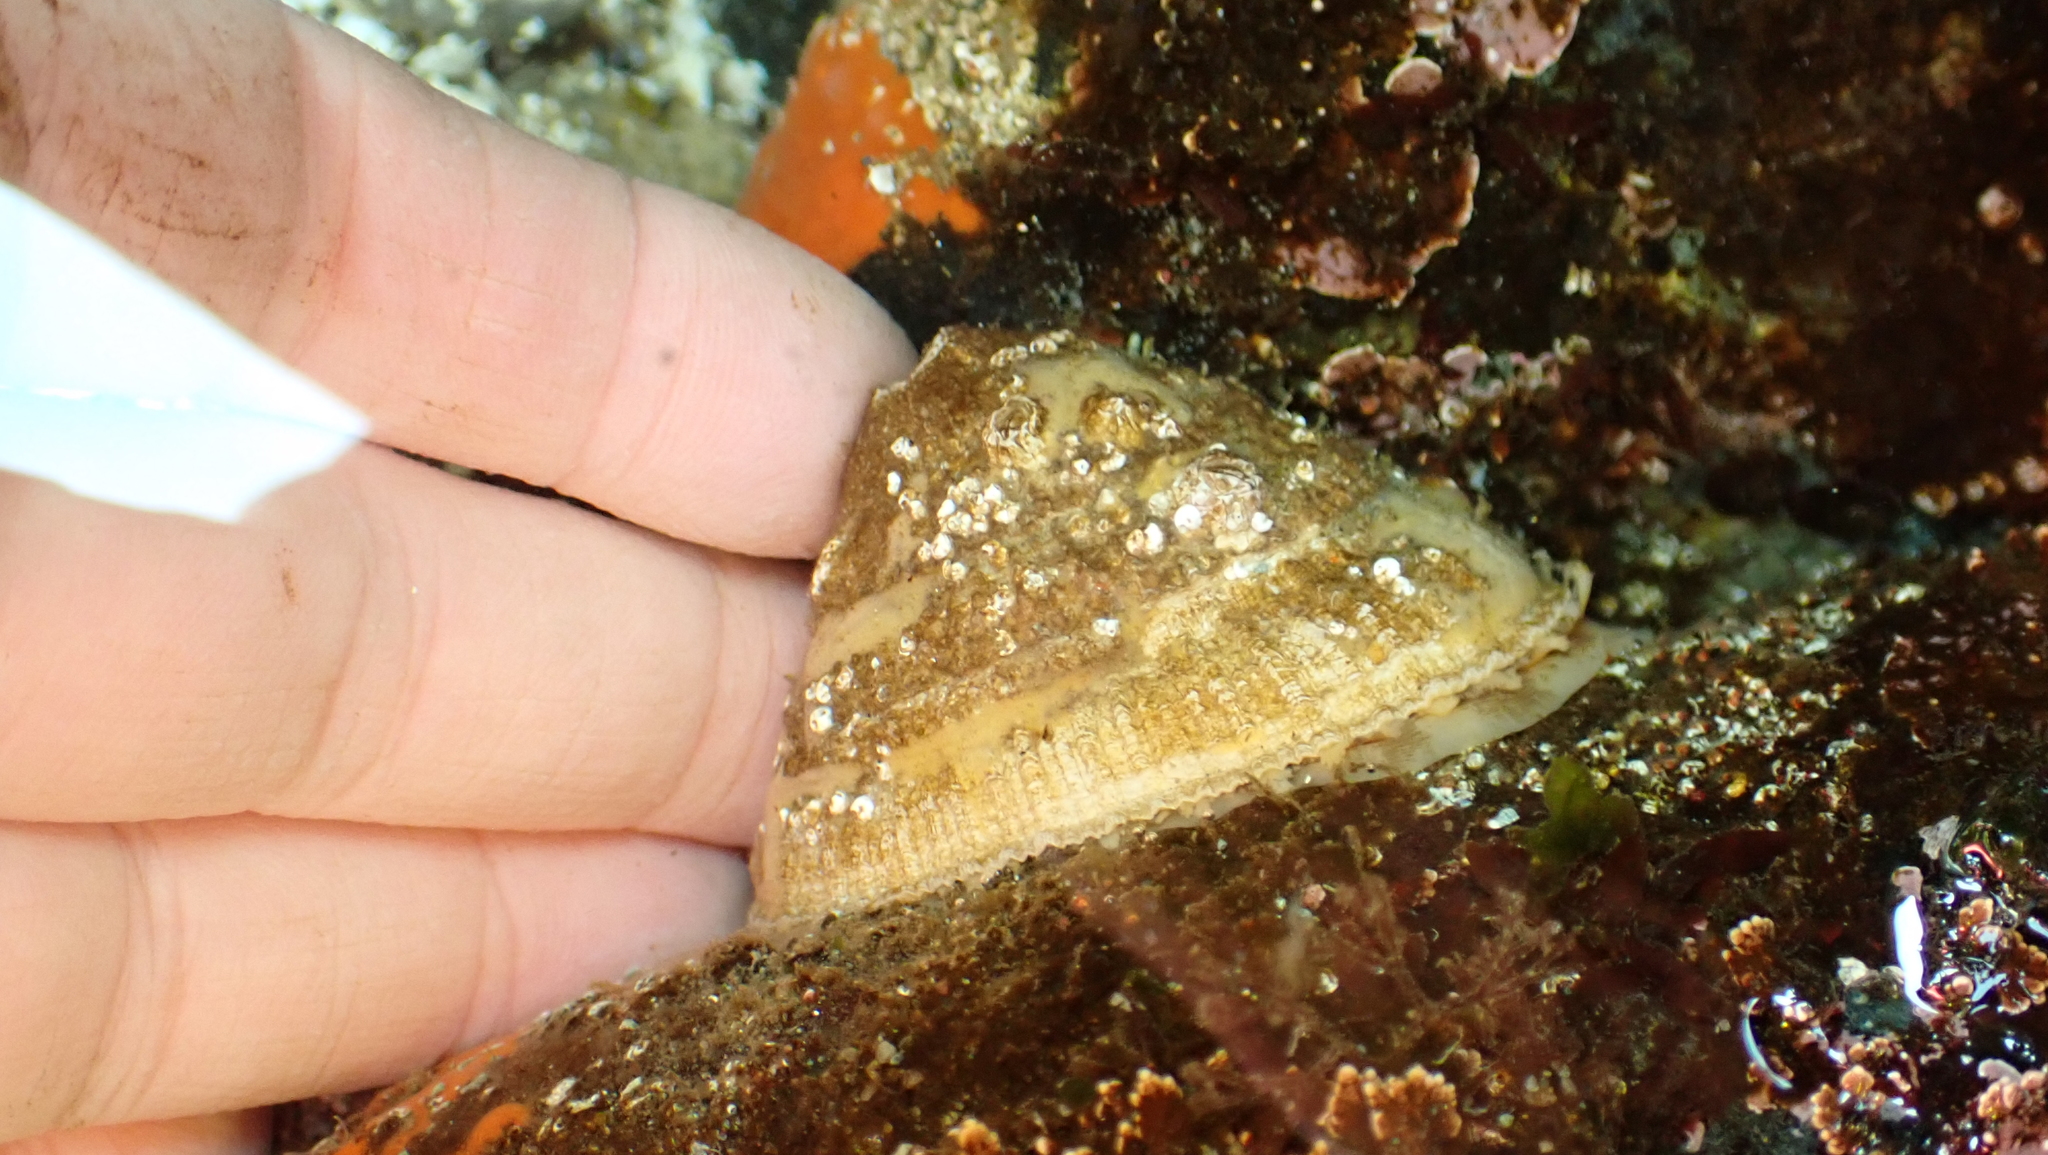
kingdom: Animalia
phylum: Mollusca
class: Gastropoda
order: Lepetellida
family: Fissurellidae
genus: Diodora
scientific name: Diodora aspera
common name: Rough keyhole limpet
